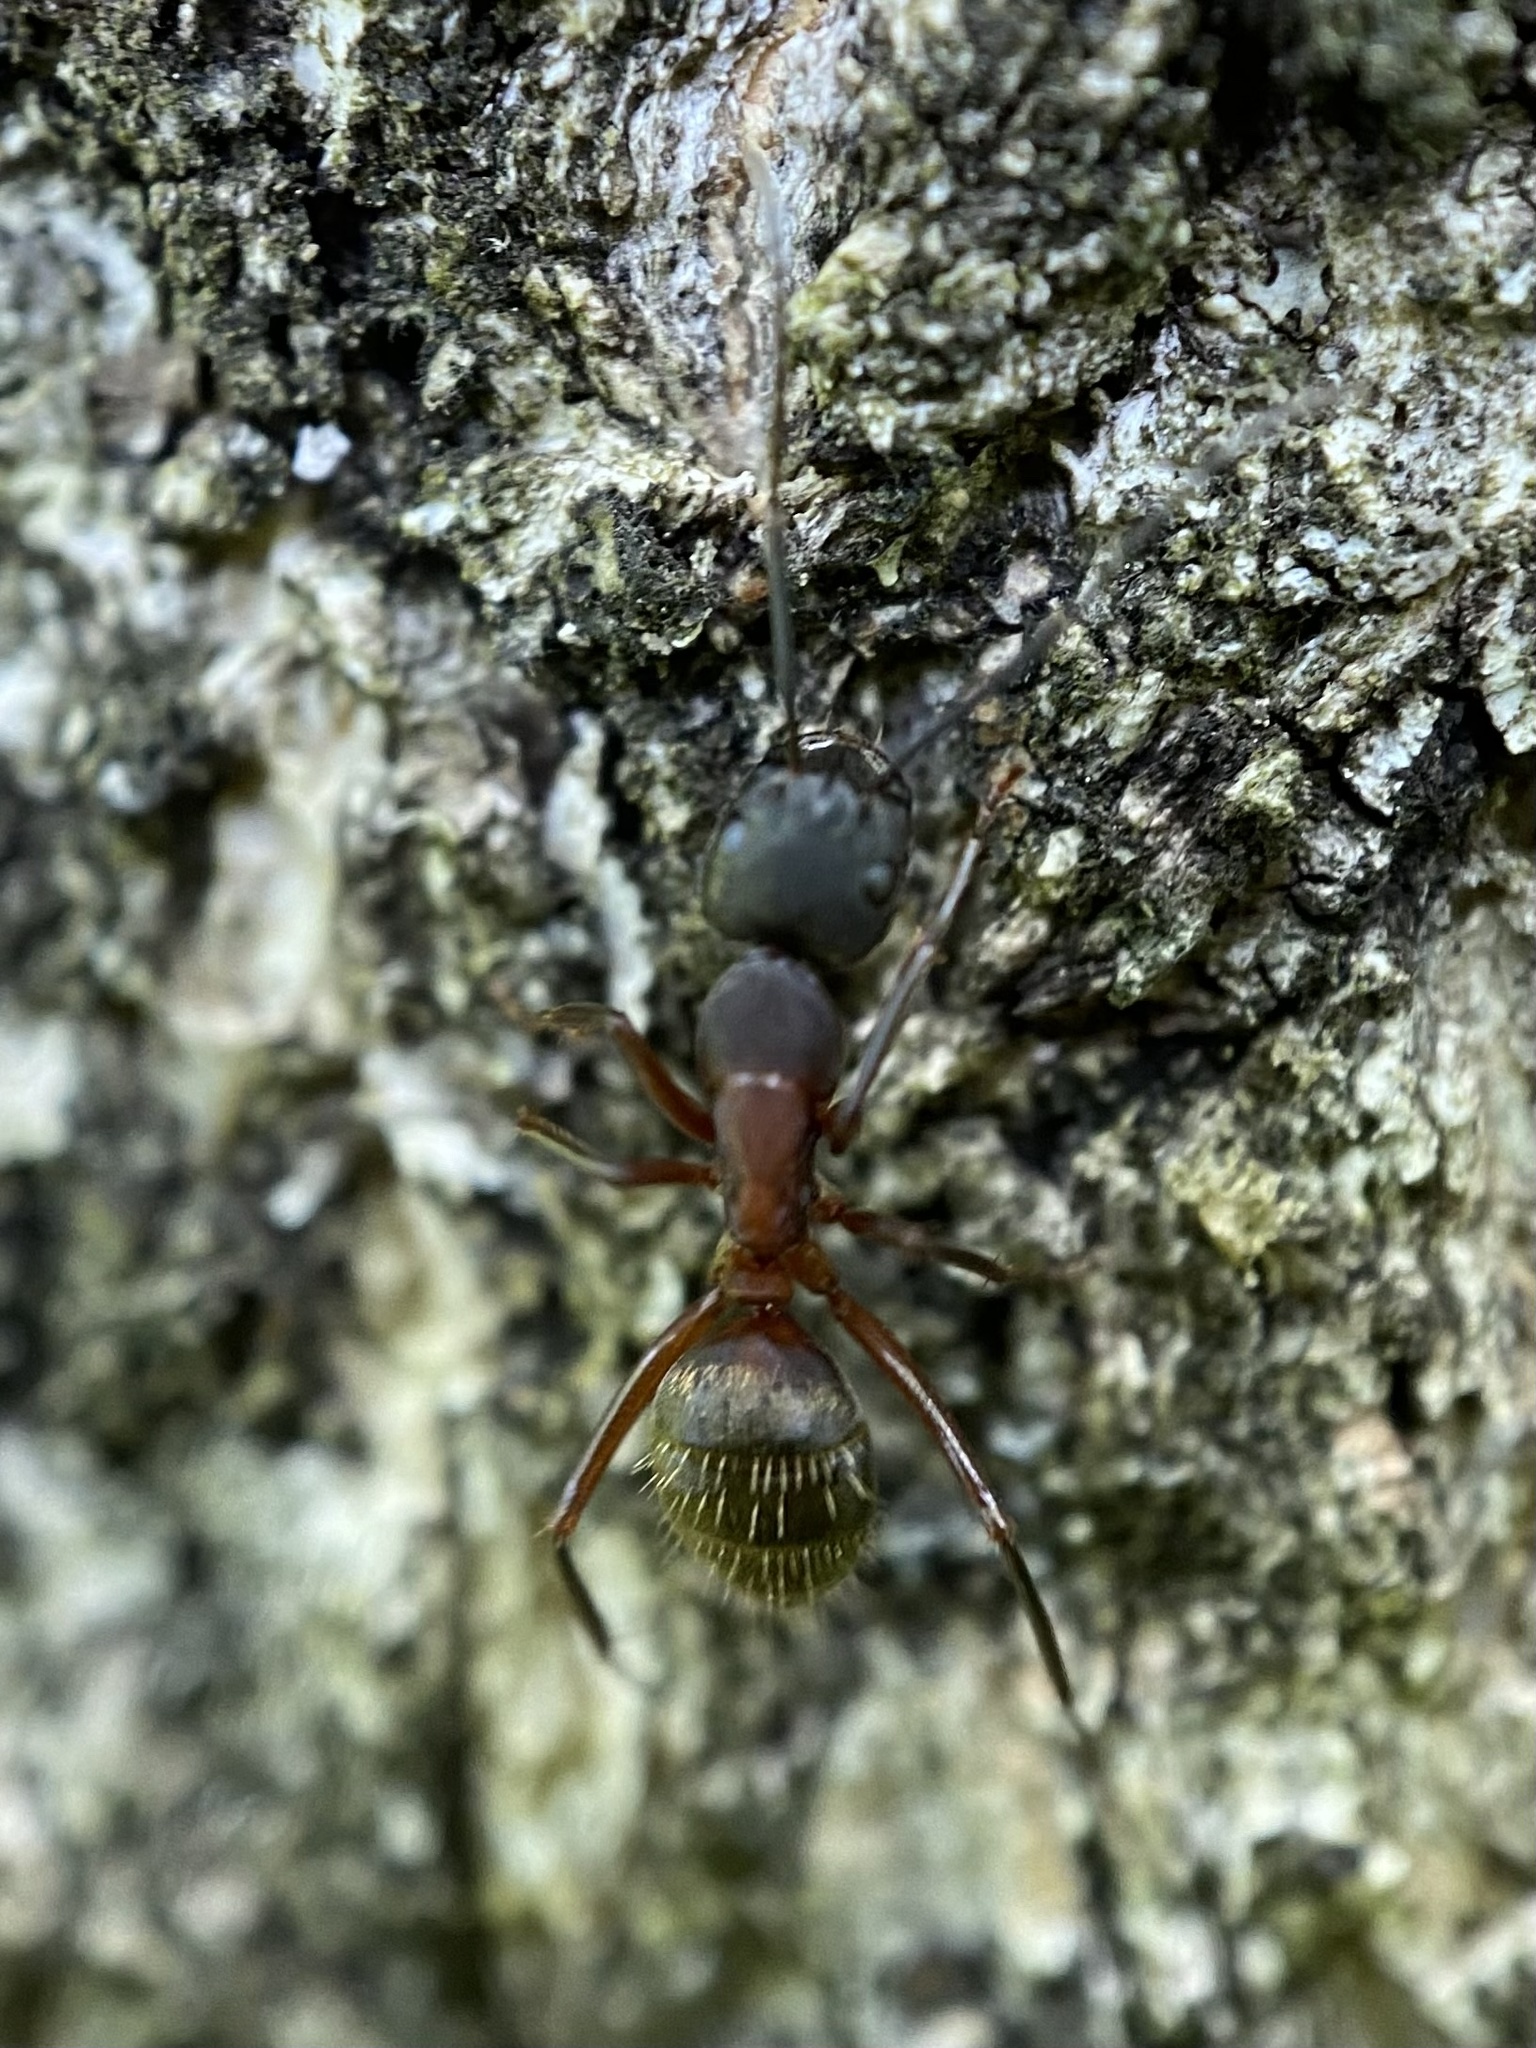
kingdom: Animalia
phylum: Arthropoda
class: Insecta
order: Hymenoptera
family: Formicidae
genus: Camponotus
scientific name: Camponotus chromaiodes
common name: Red carpenter ant
